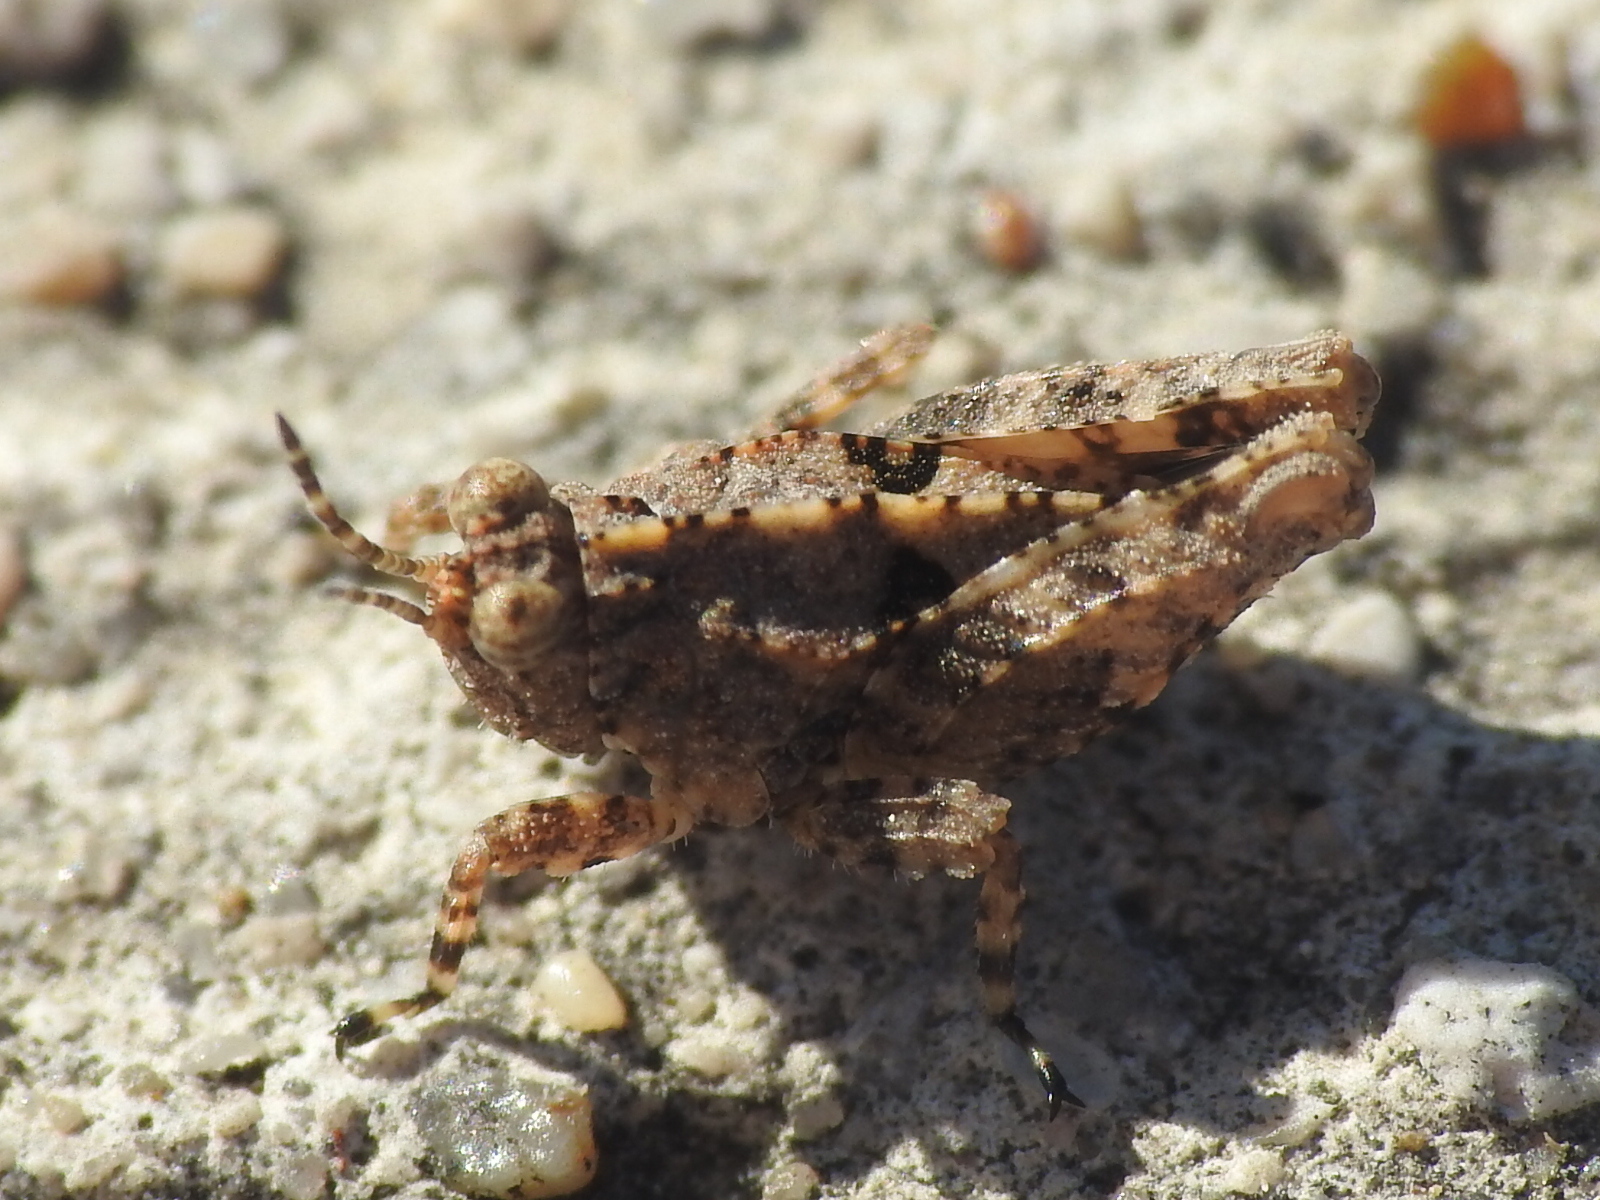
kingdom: Animalia
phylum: Arthropoda
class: Insecta
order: Orthoptera
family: Tetrigidae
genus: Paratettix
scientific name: Paratettix mexicanus
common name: Mexican pygmy grasshopper
